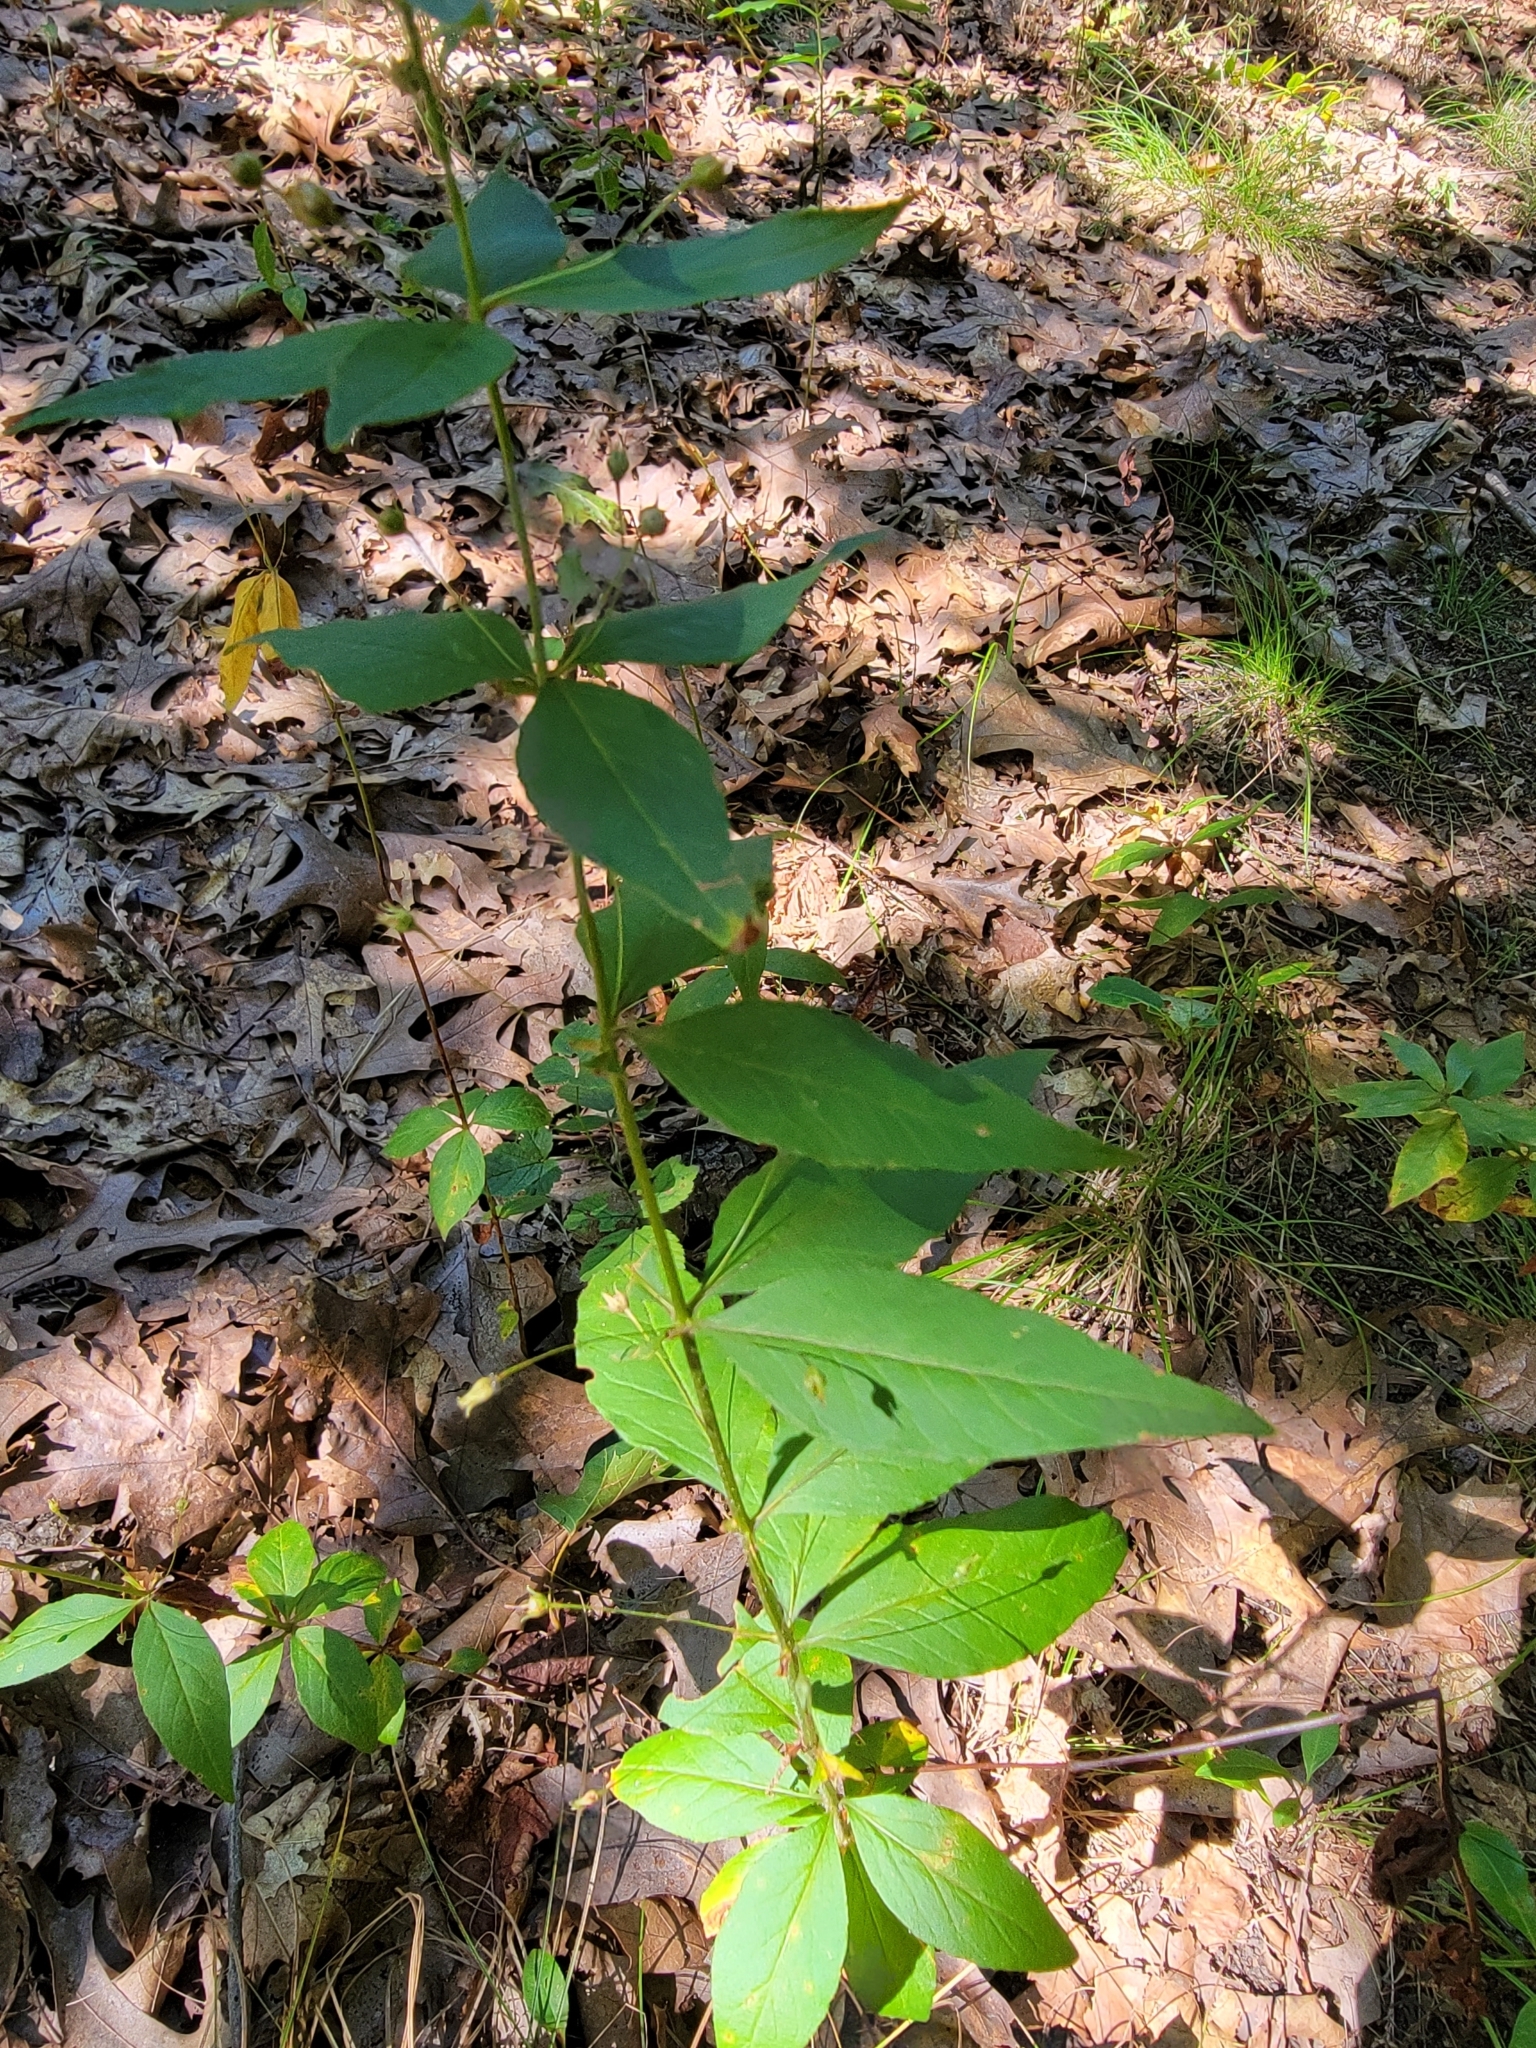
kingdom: Plantae
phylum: Tracheophyta
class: Magnoliopsida
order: Ericales
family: Primulaceae
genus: Lysimachia
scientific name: Lysimachia quadrifolia
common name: Whorled loosestrife
